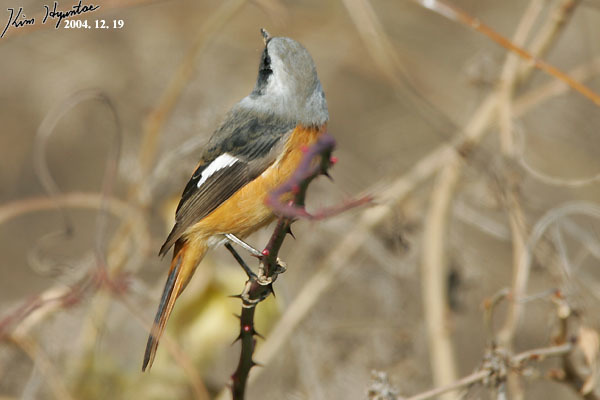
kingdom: Animalia
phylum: Chordata
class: Aves
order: Passeriformes
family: Muscicapidae
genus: Phoenicurus
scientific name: Phoenicurus auroreus
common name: Daurian redstart
